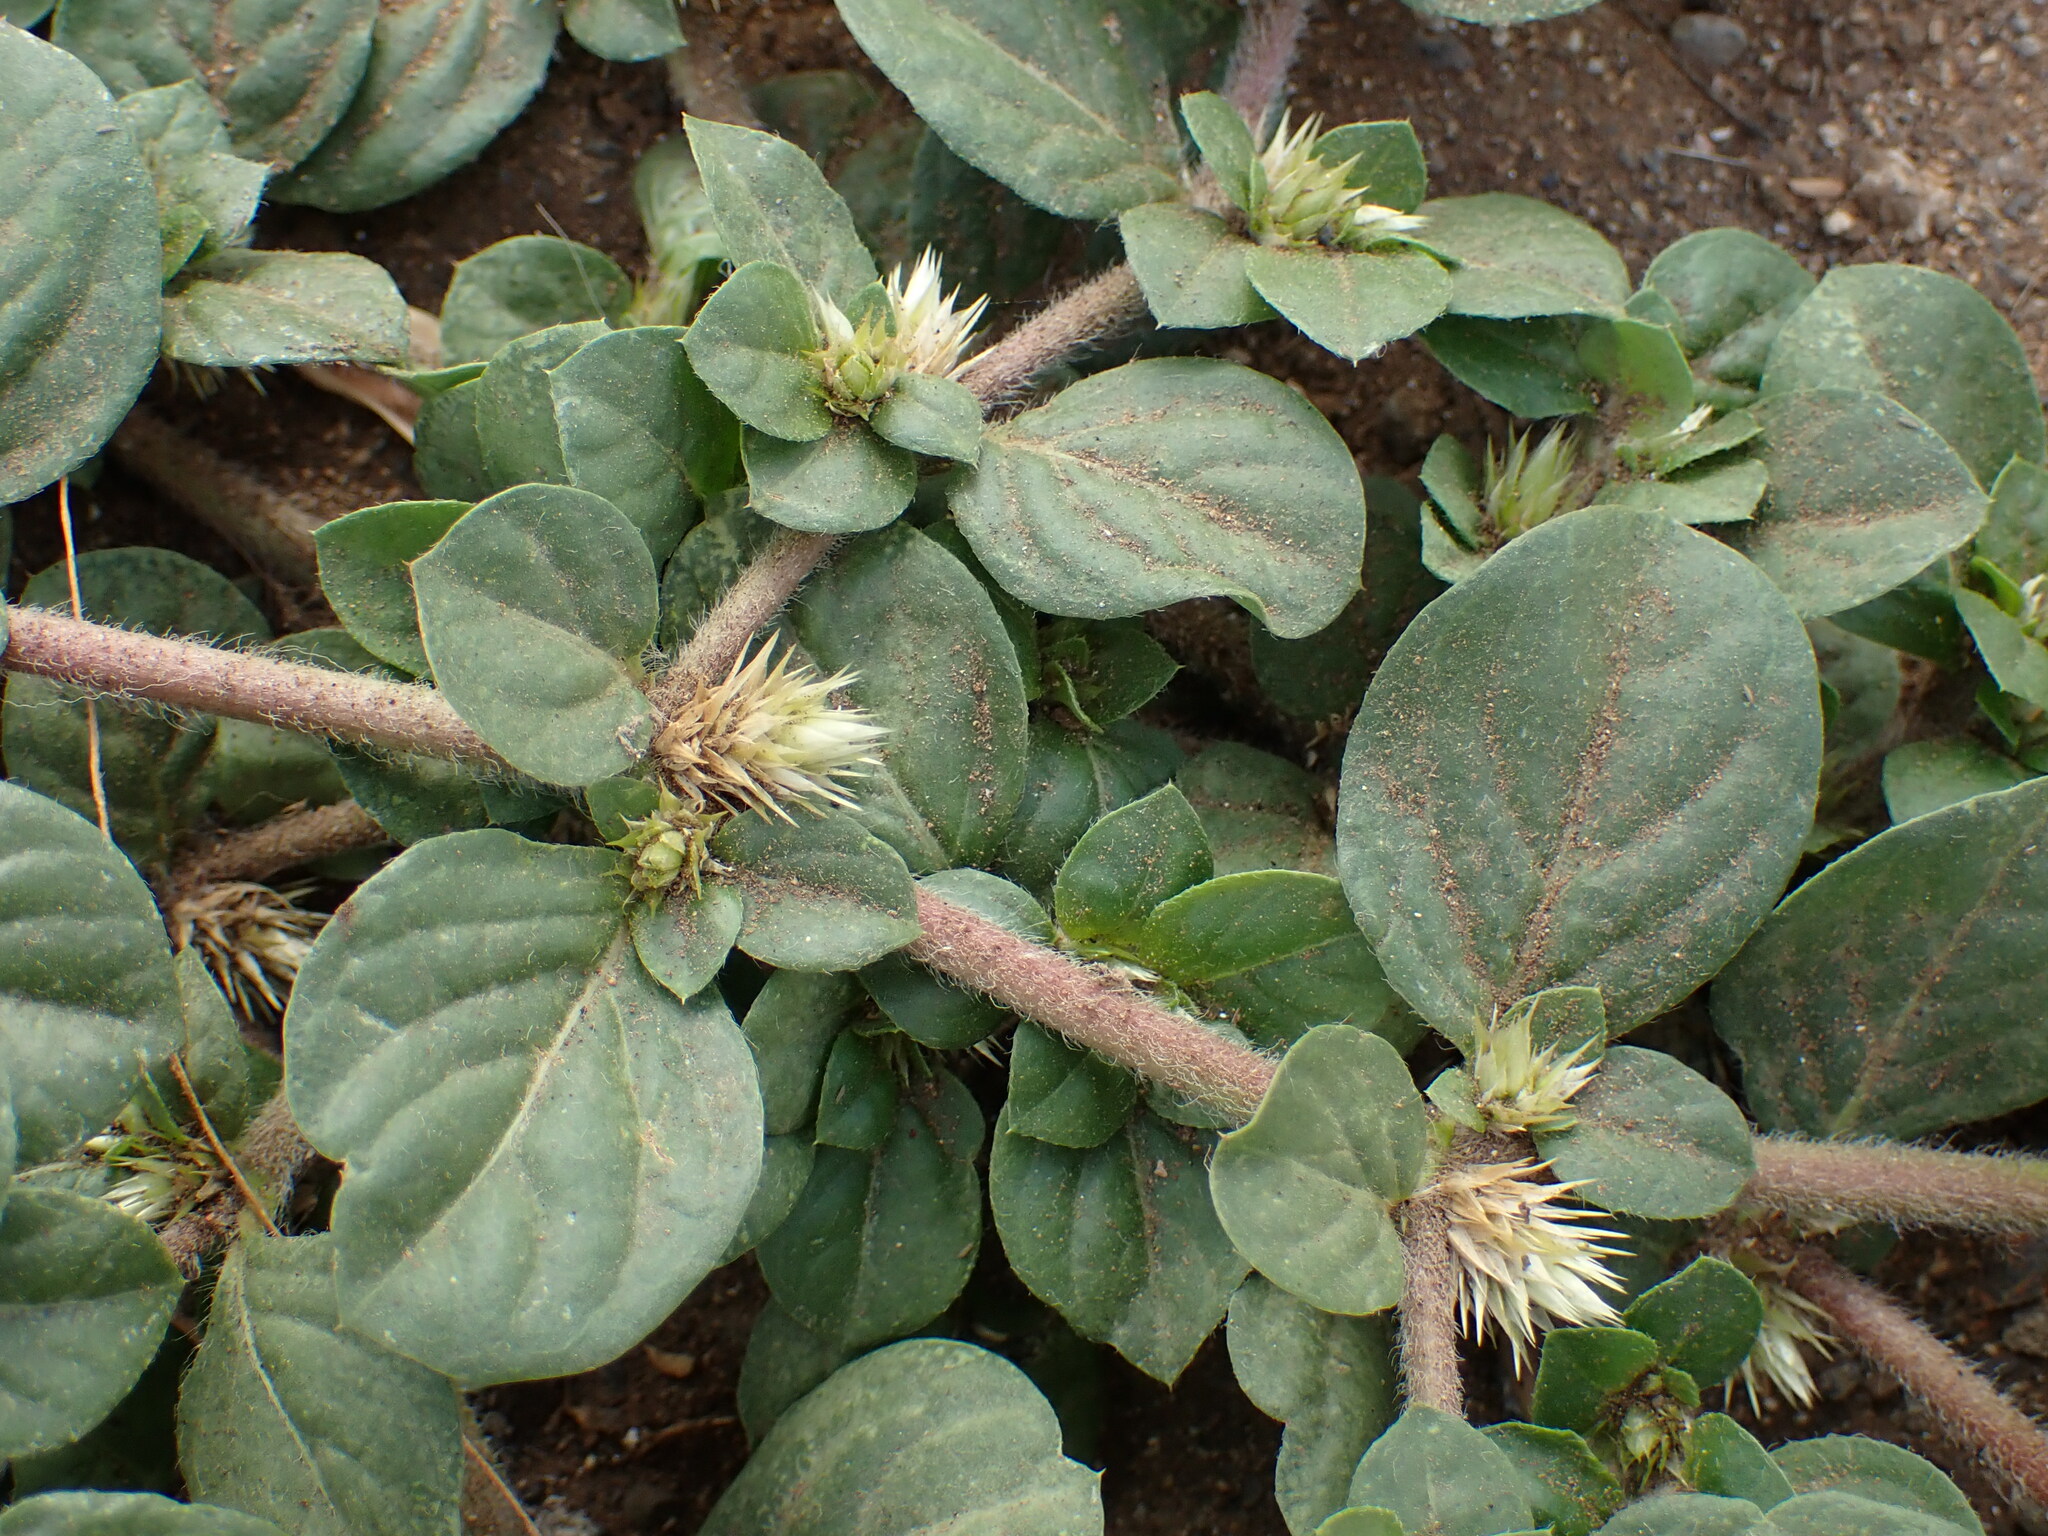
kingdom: Plantae
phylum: Tracheophyta
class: Magnoliopsida
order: Caryophyllales
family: Amaranthaceae
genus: Alternanthera
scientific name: Alternanthera pungens
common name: Khakiweed
